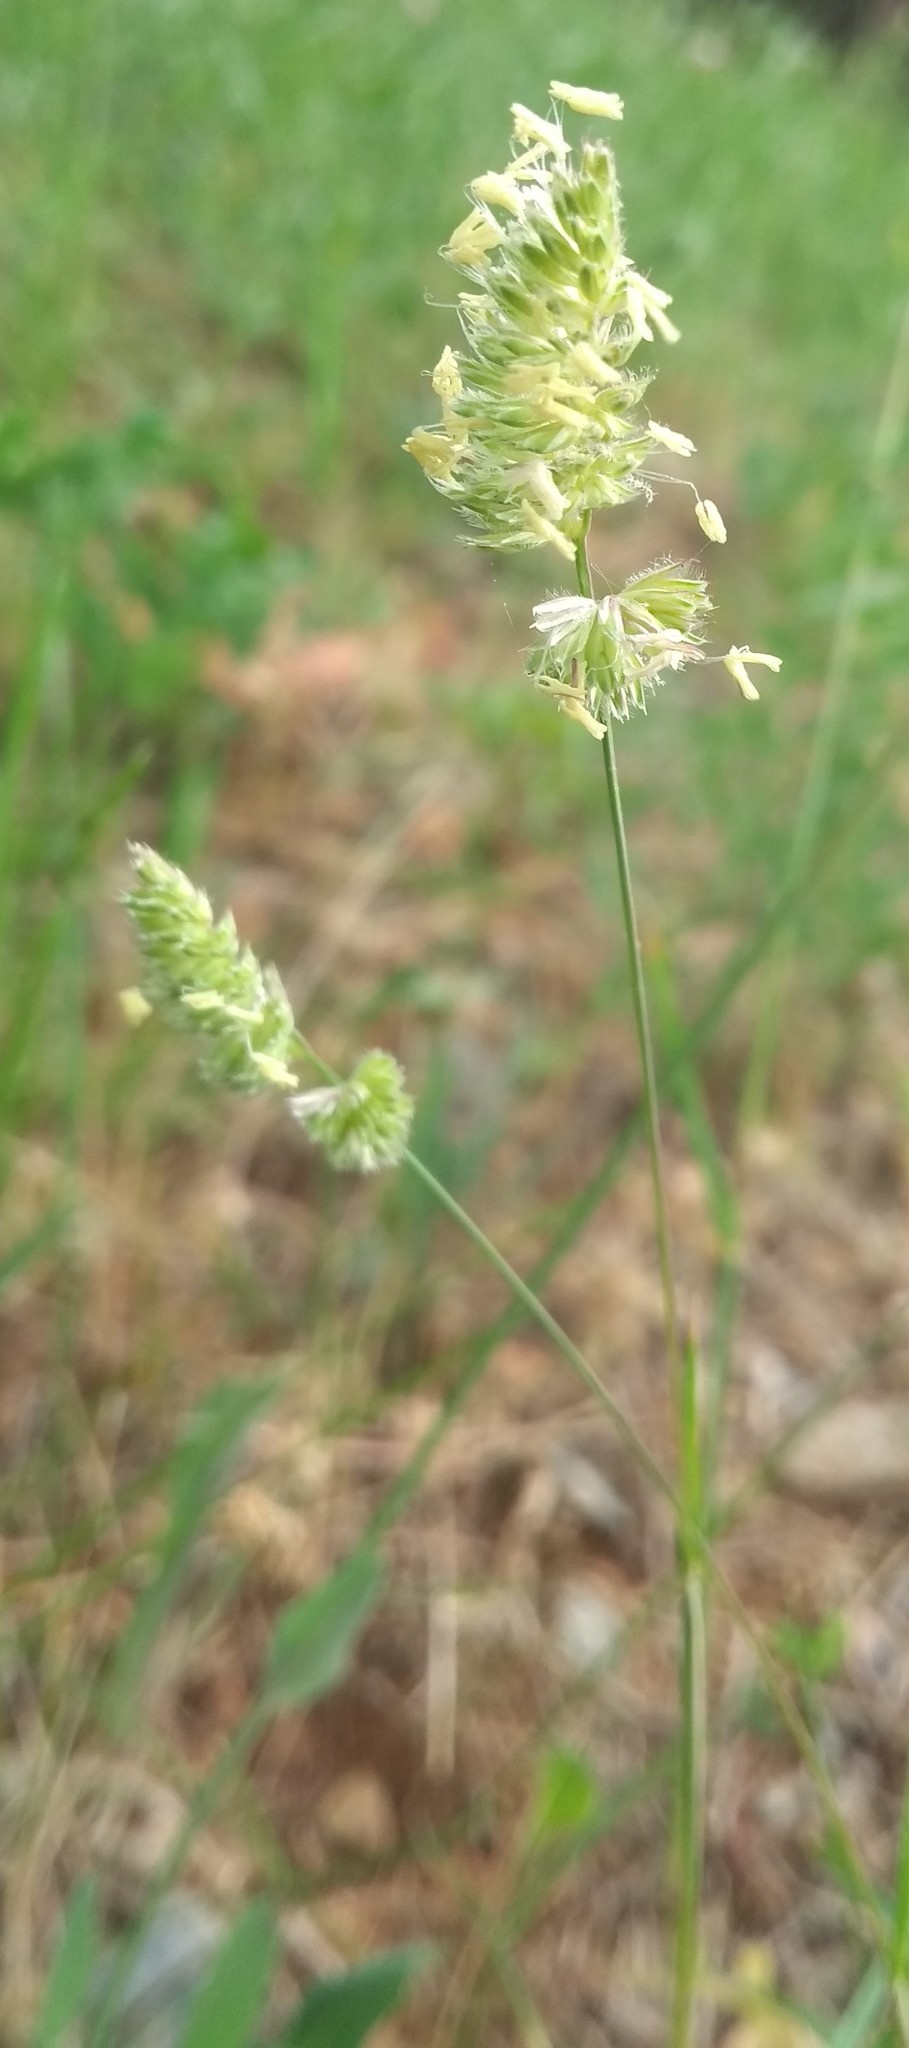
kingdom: Plantae
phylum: Tracheophyta
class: Liliopsida
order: Poales
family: Poaceae
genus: Dactylis
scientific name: Dactylis glomerata
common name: Orchardgrass
